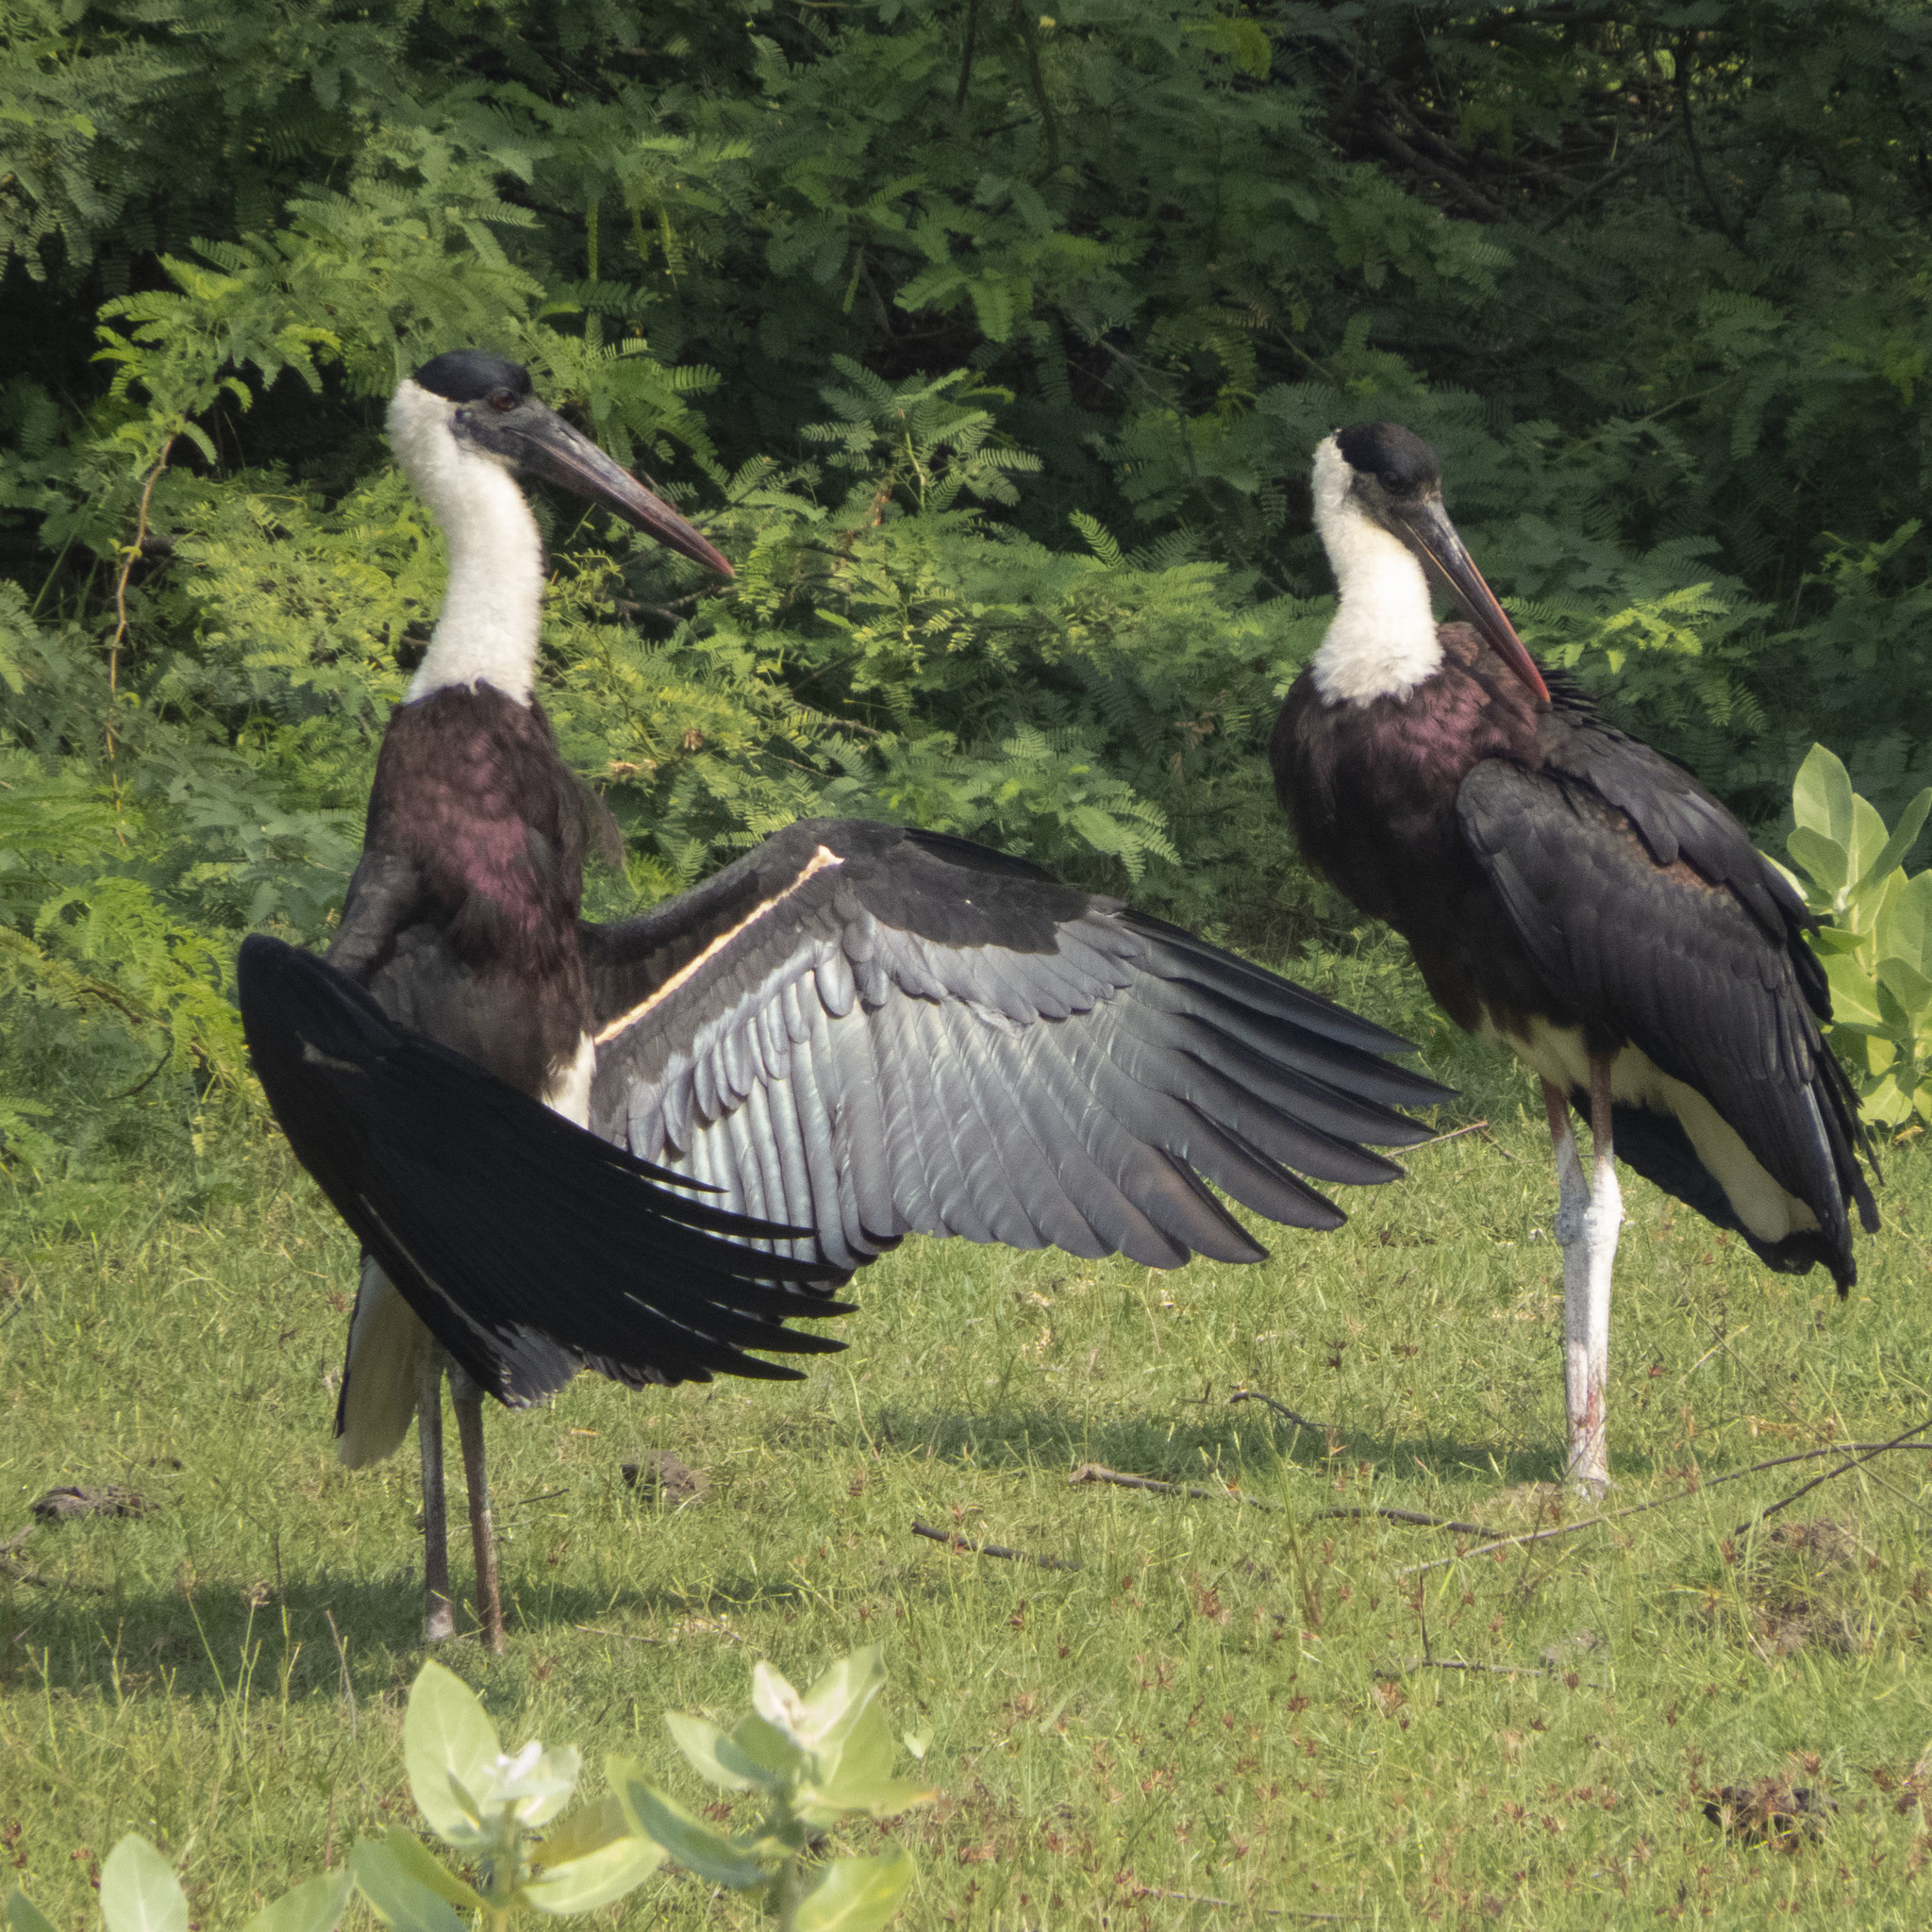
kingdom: Animalia
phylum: Chordata
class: Aves
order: Ciconiiformes
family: Ciconiidae
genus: Ciconia
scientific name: Ciconia episcopus
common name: Woolly-necked stork
